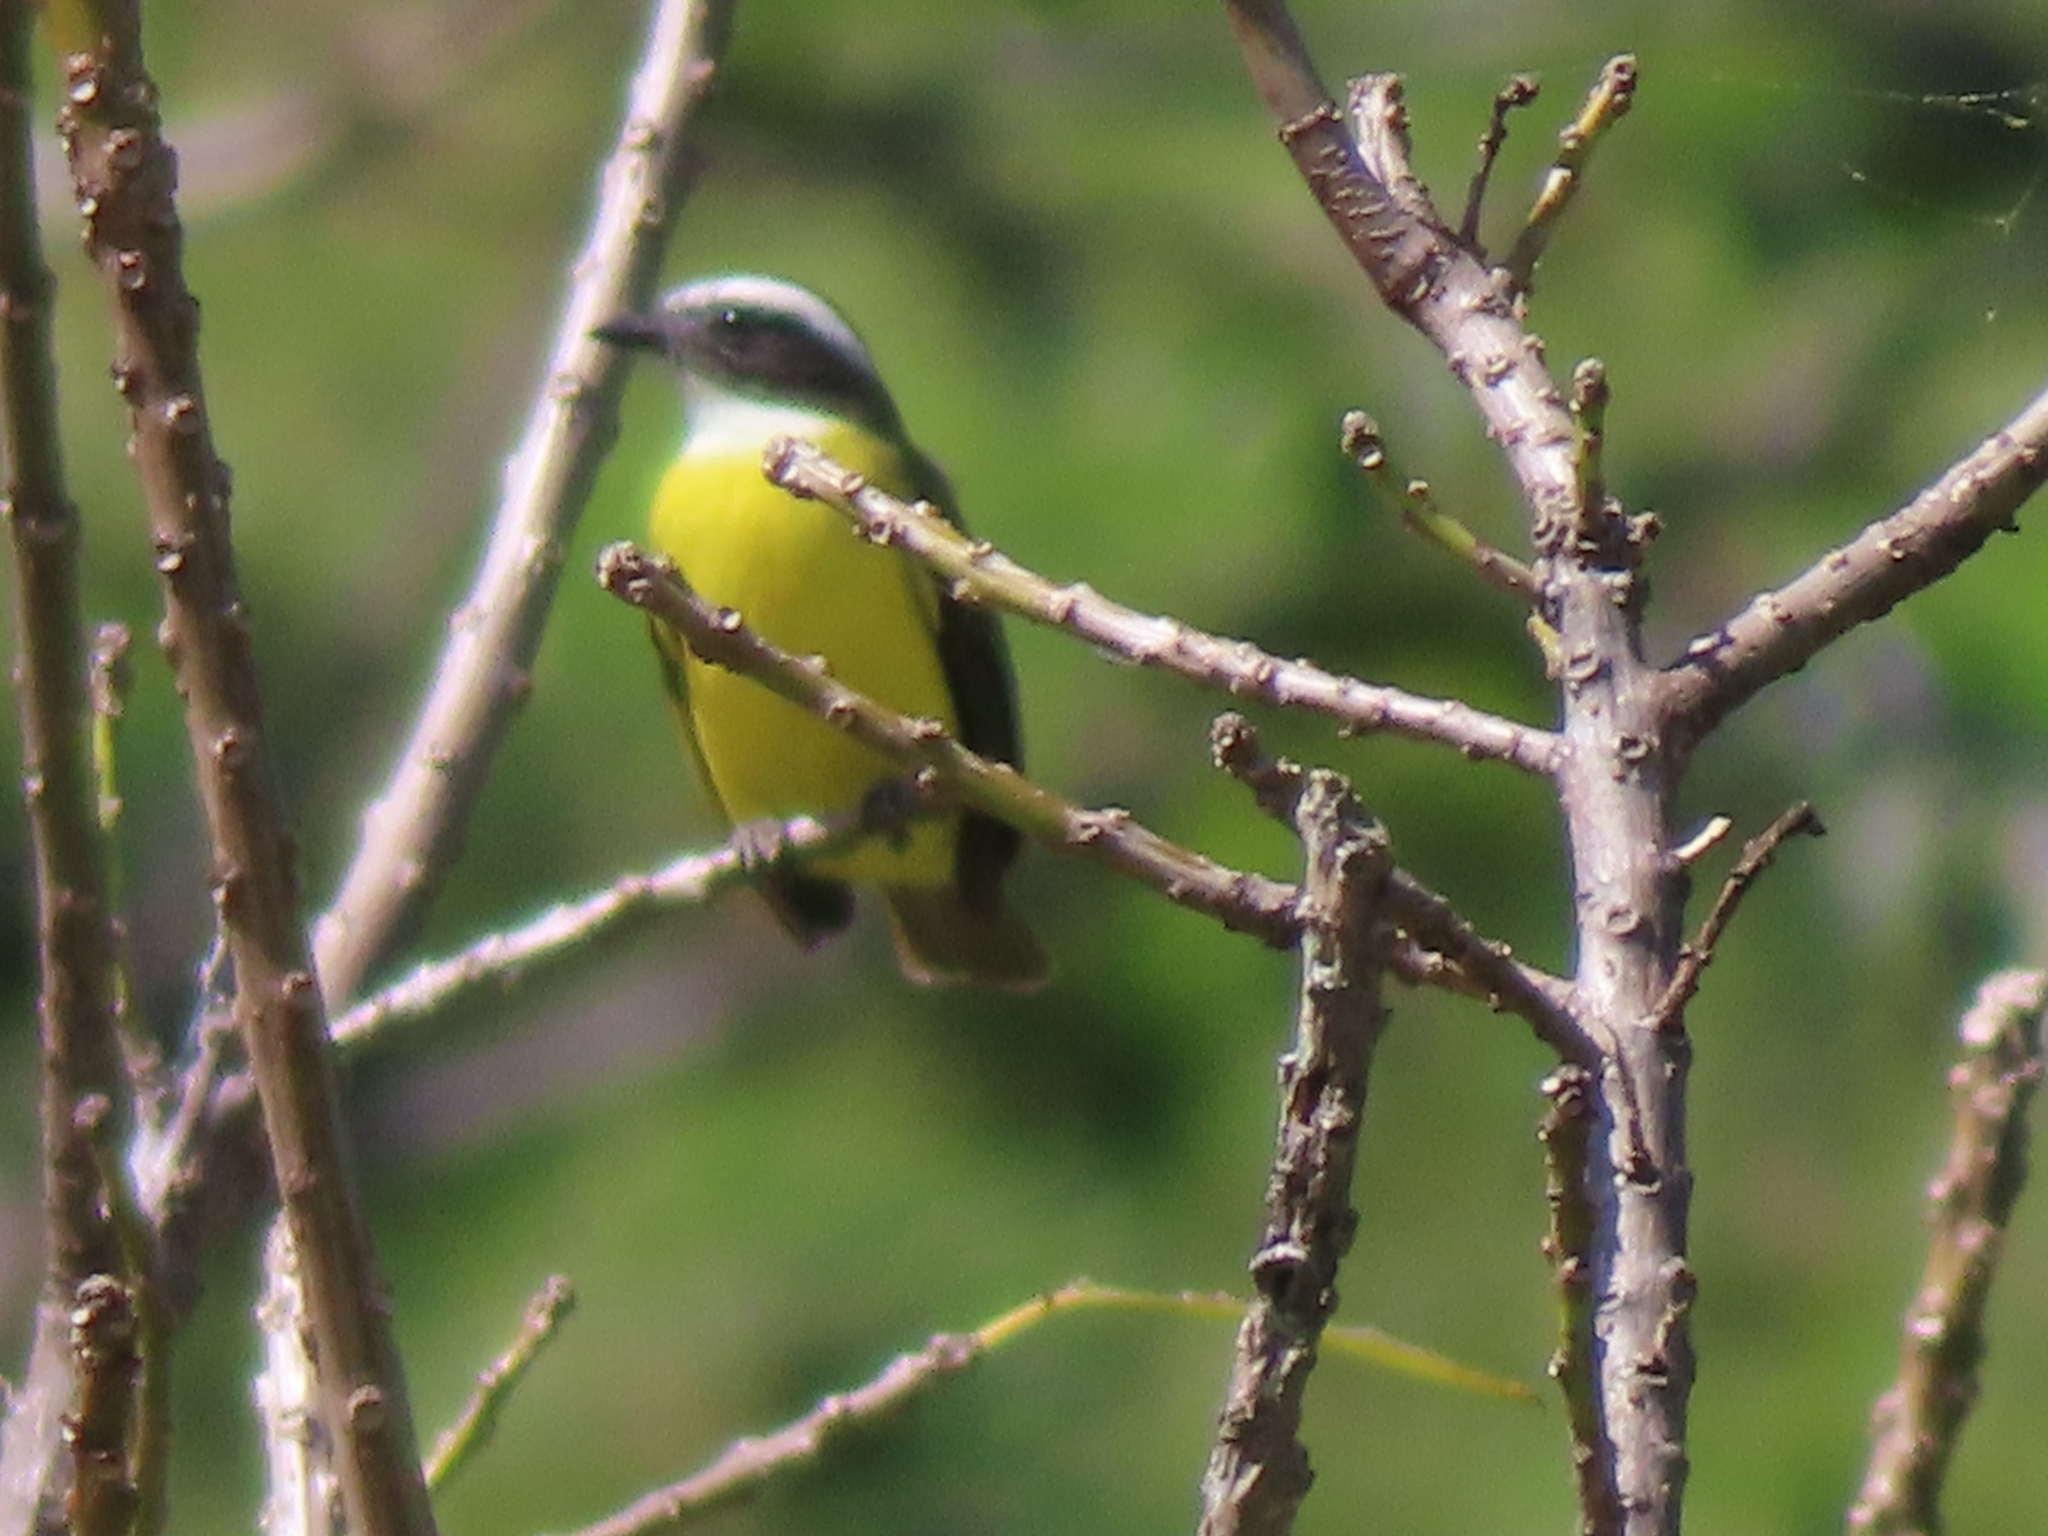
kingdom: Animalia
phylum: Chordata
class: Aves
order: Passeriformes
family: Tyrannidae
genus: Myiozetetes
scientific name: Myiozetetes similis
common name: Social flycatcher
